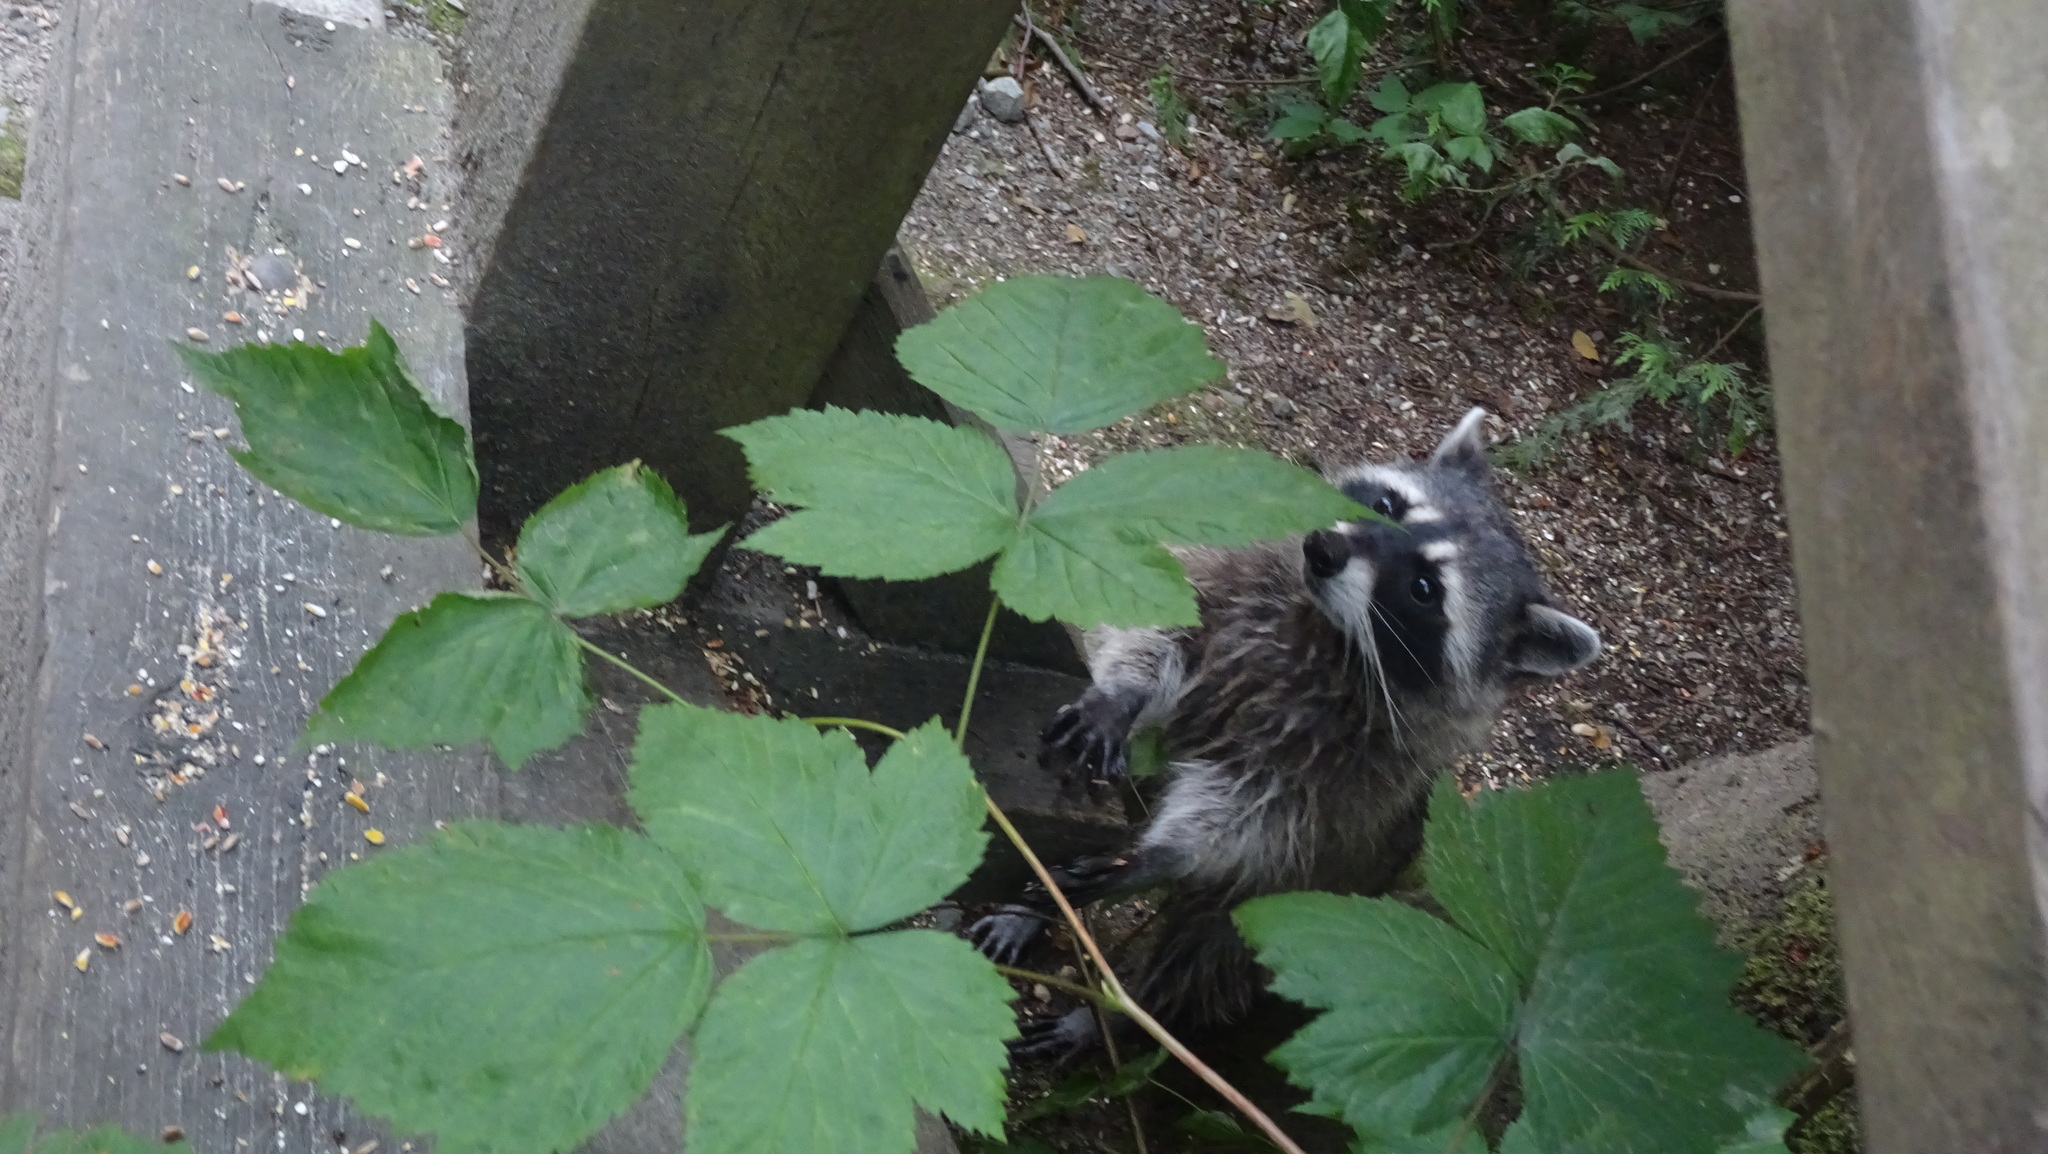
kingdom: Animalia
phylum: Chordata
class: Mammalia
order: Carnivora
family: Procyonidae
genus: Procyon
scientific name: Procyon lotor
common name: Raccoon
